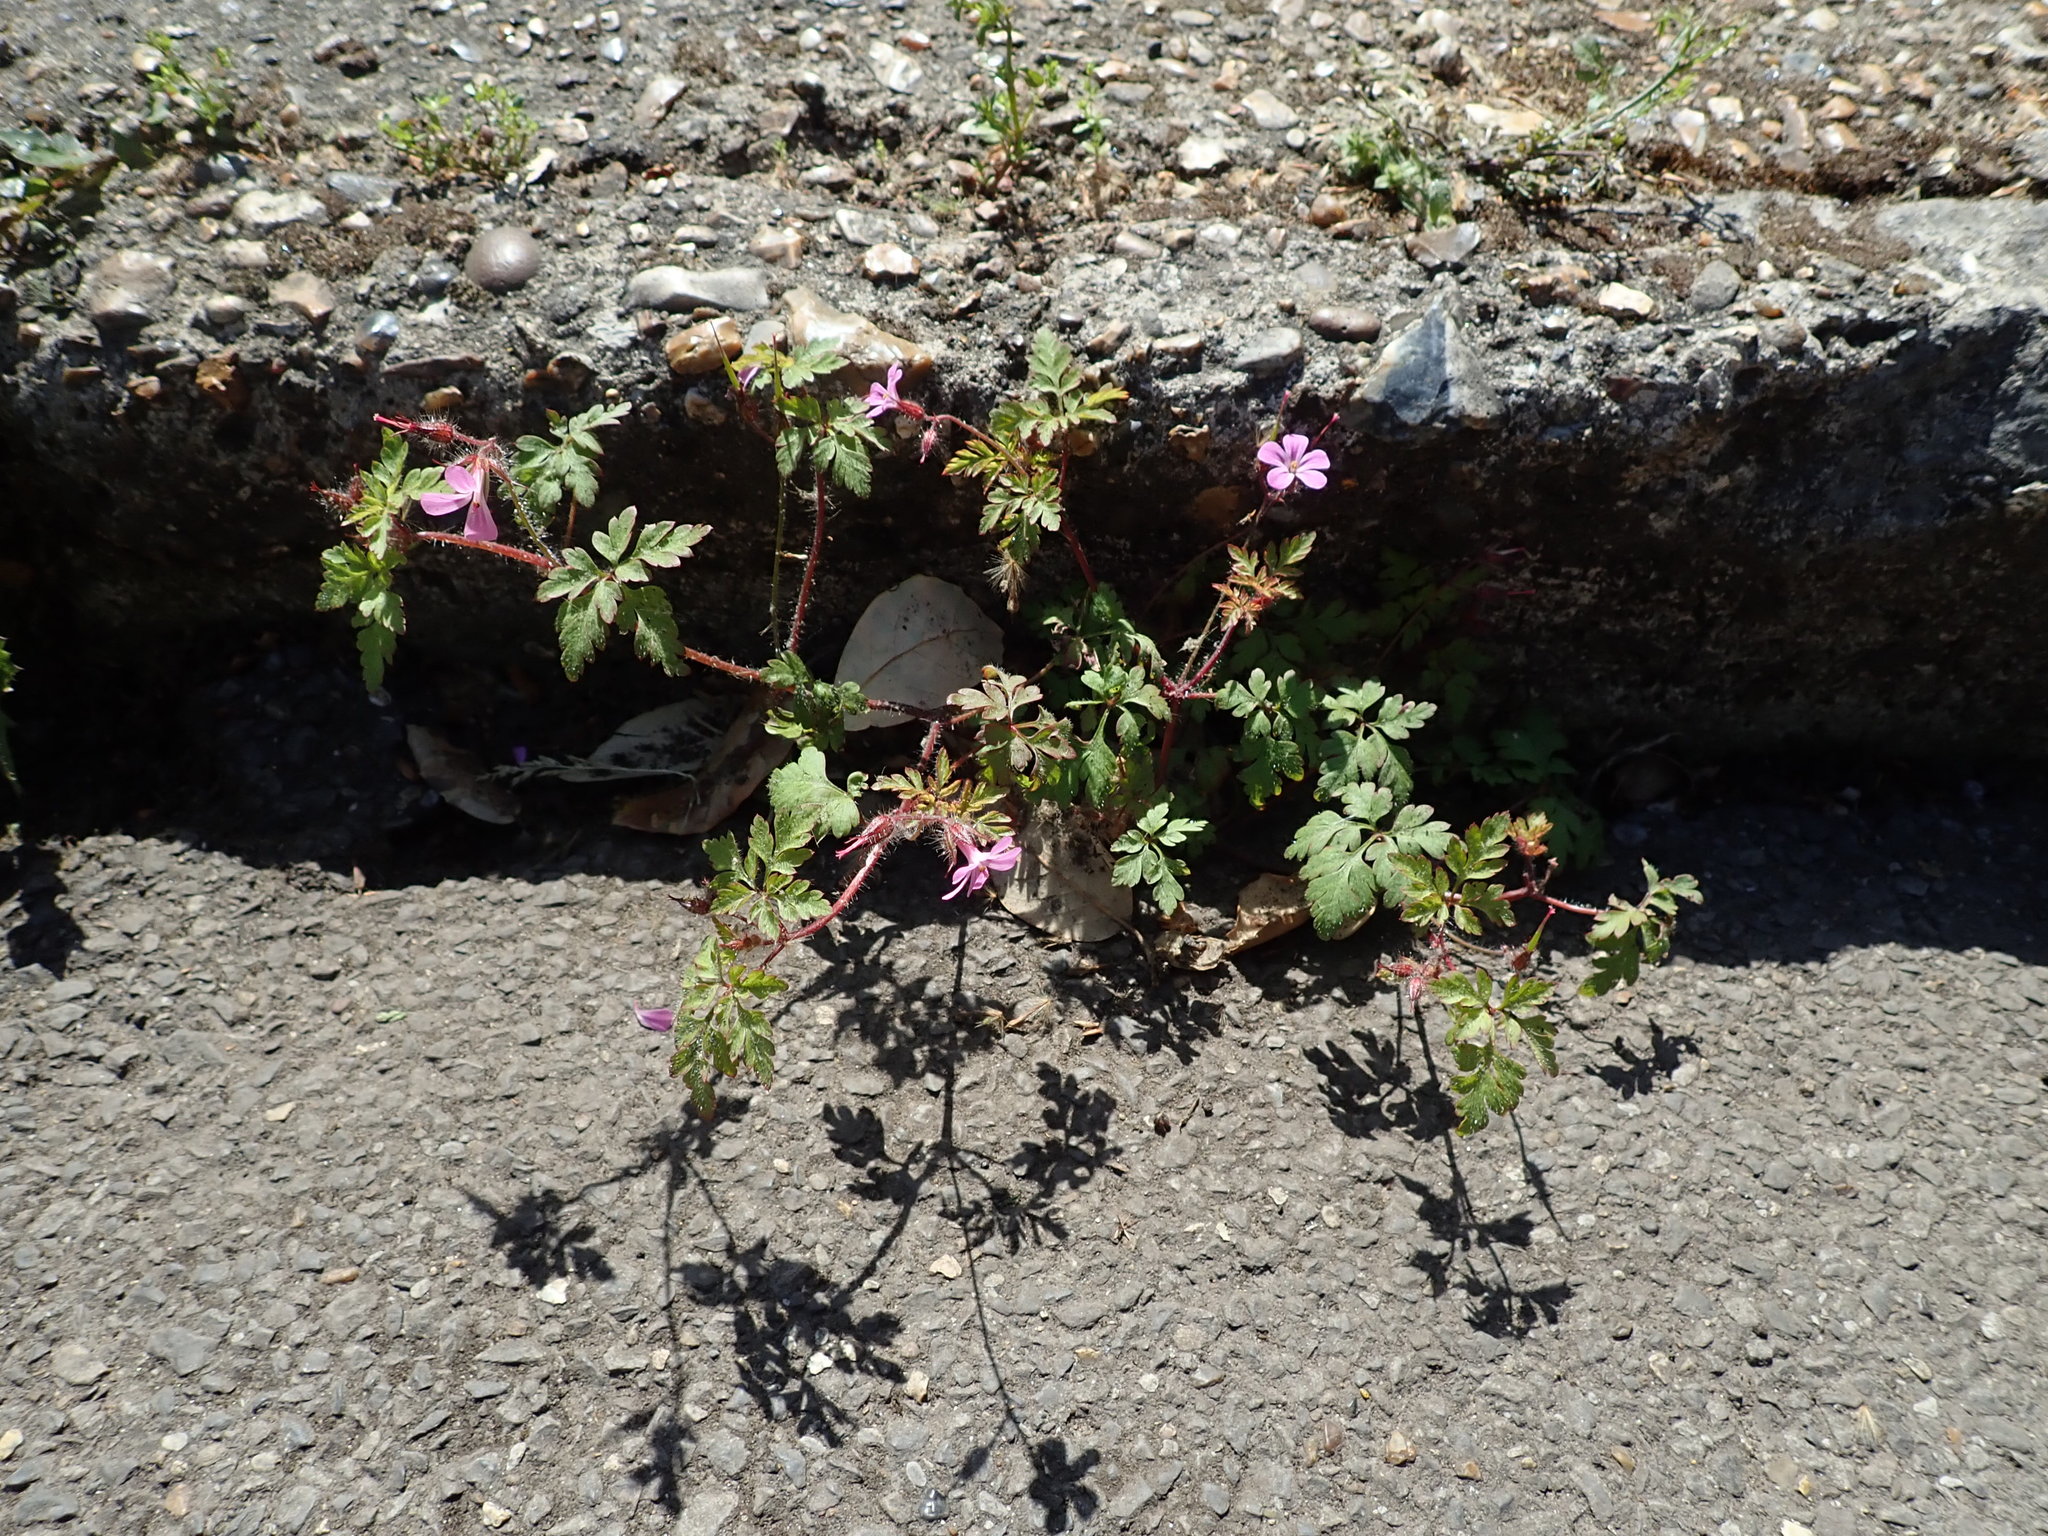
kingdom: Plantae
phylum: Tracheophyta
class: Magnoliopsida
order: Geraniales
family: Geraniaceae
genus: Geranium
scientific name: Geranium robertianum
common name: Herb-robert
